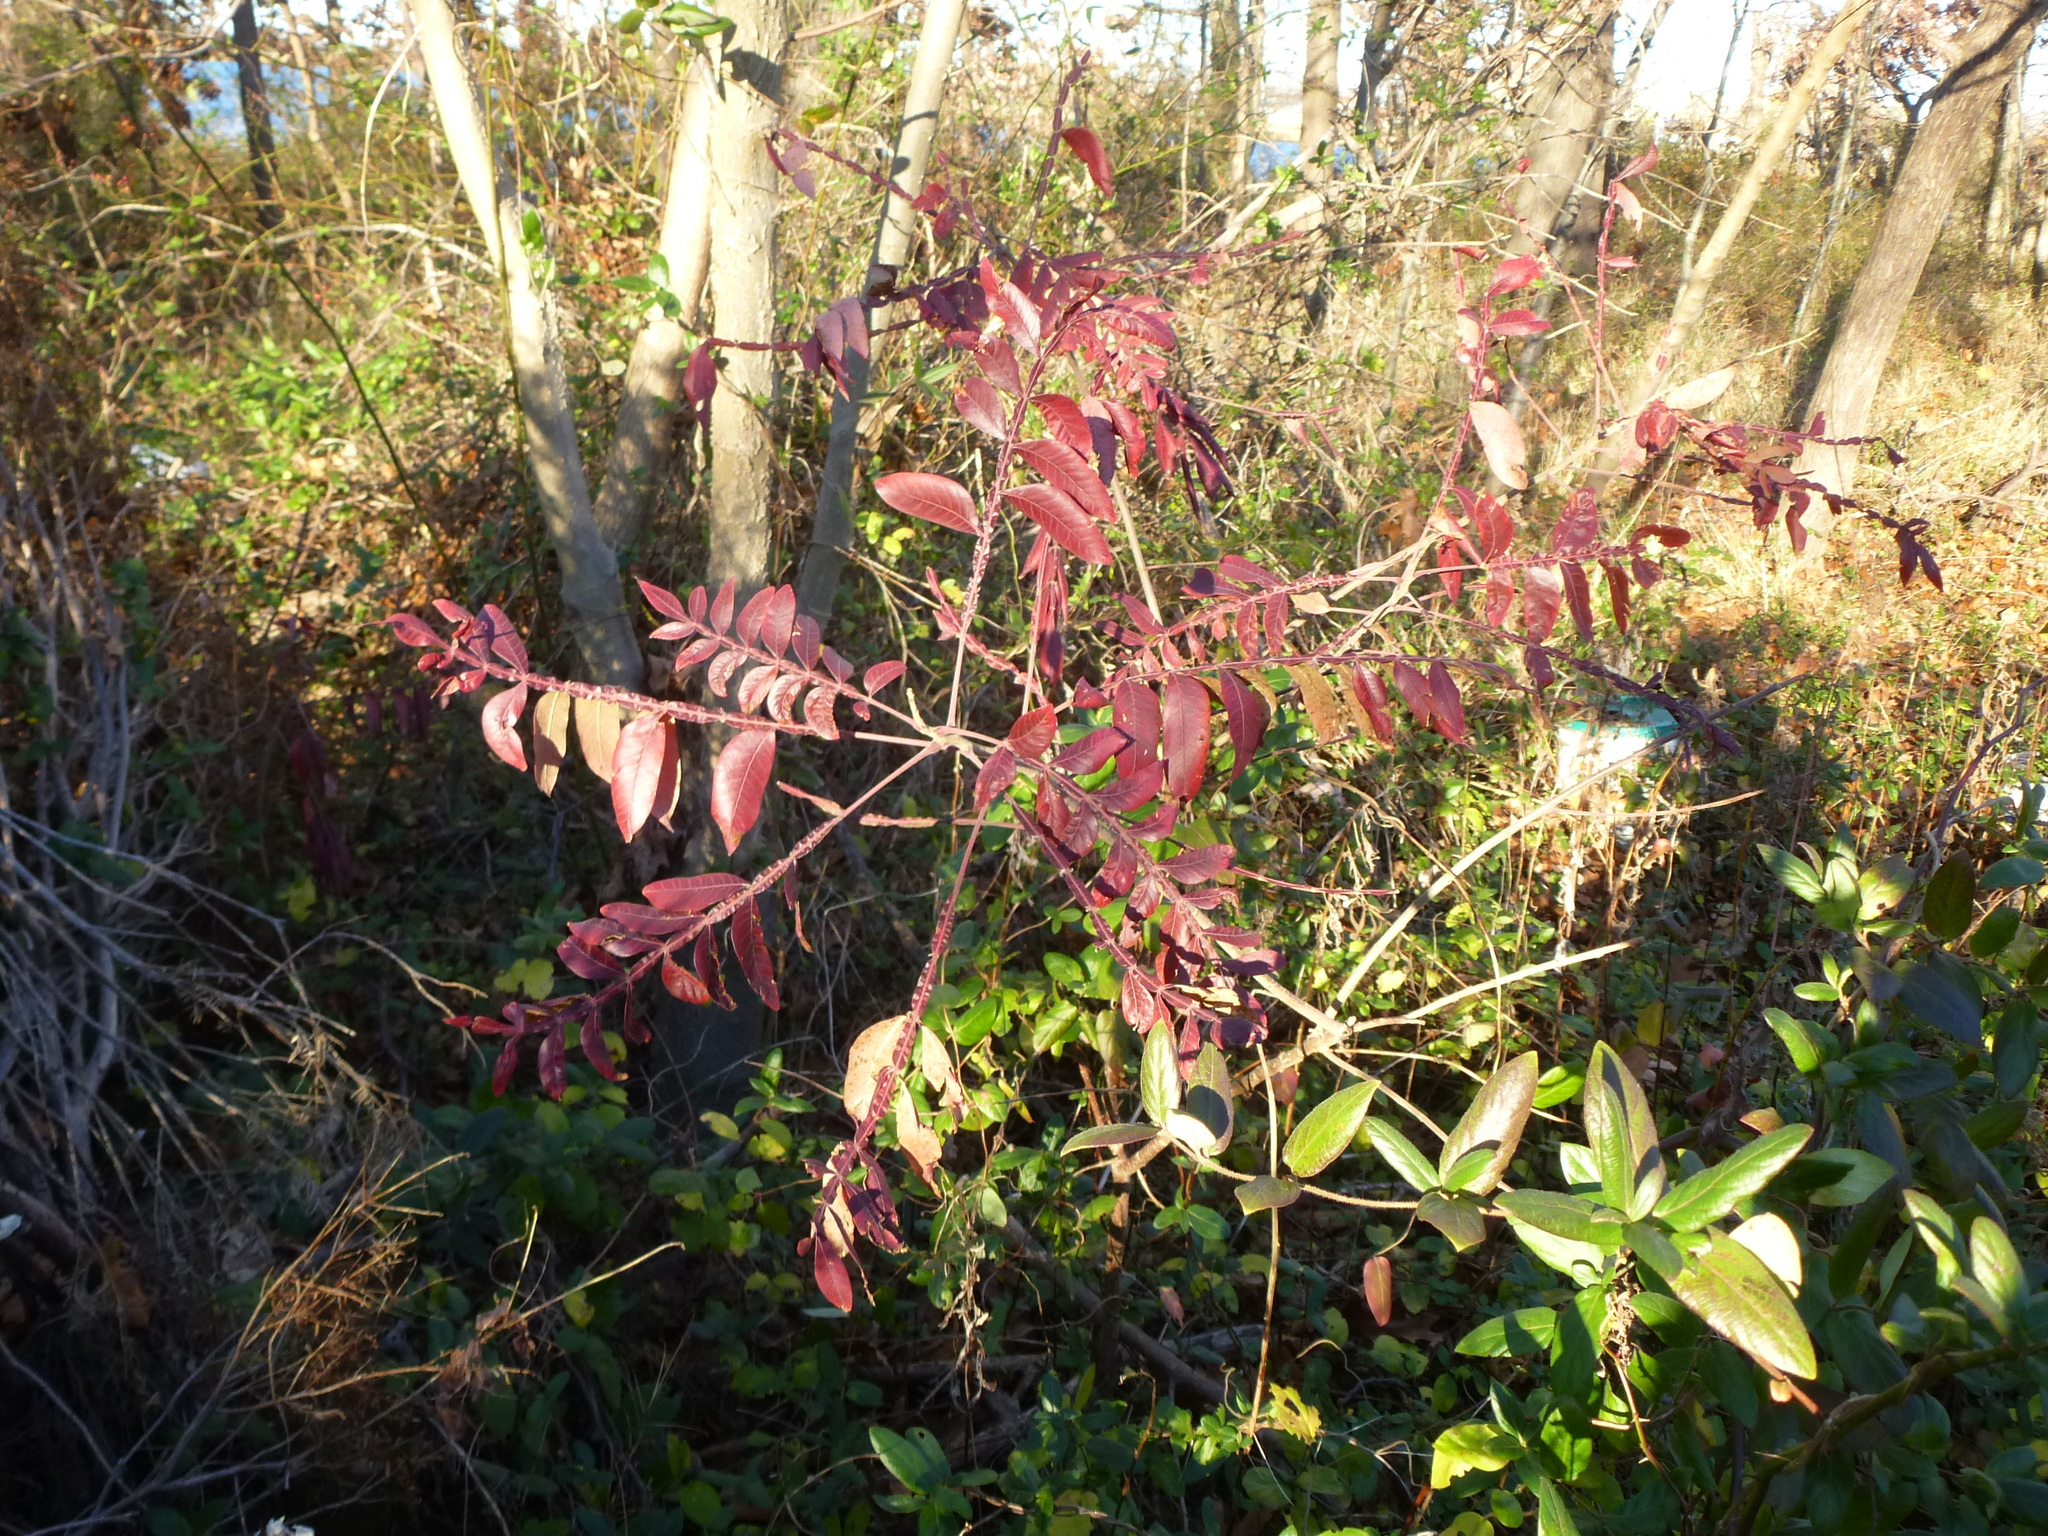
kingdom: Plantae
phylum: Tracheophyta
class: Magnoliopsida
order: Sapindales
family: Anacardiaceae
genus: Rhus
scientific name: Rhus copallina
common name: Shining sumac
